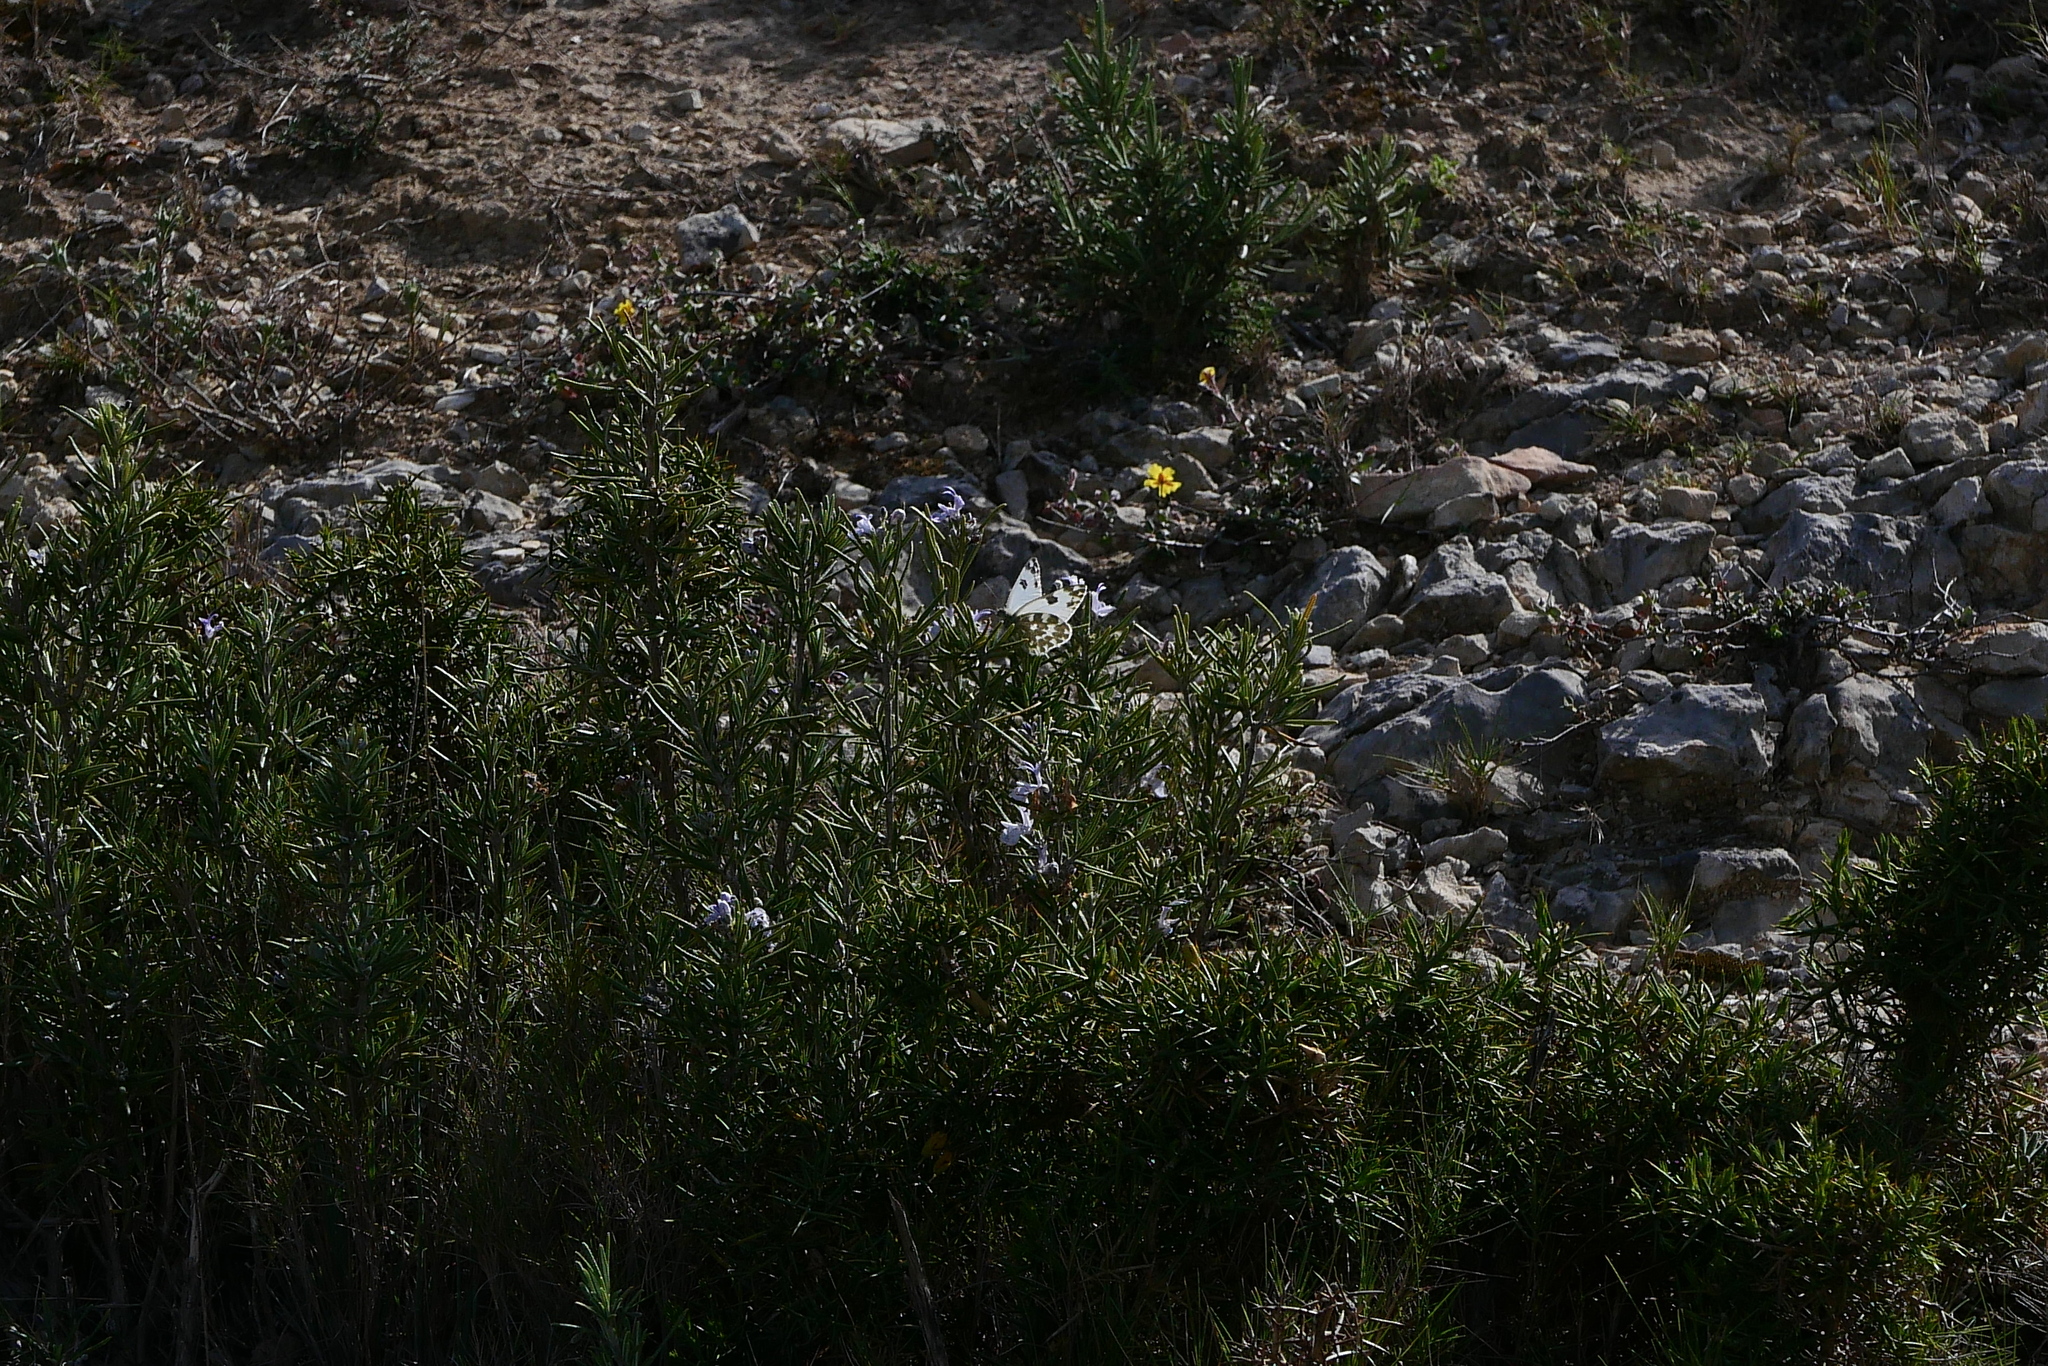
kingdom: Animalia
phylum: Arthropoda
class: Insecta
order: Lepidoptera
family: Pieridae
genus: Pontia
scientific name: Pontia daplidice
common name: Bath white
